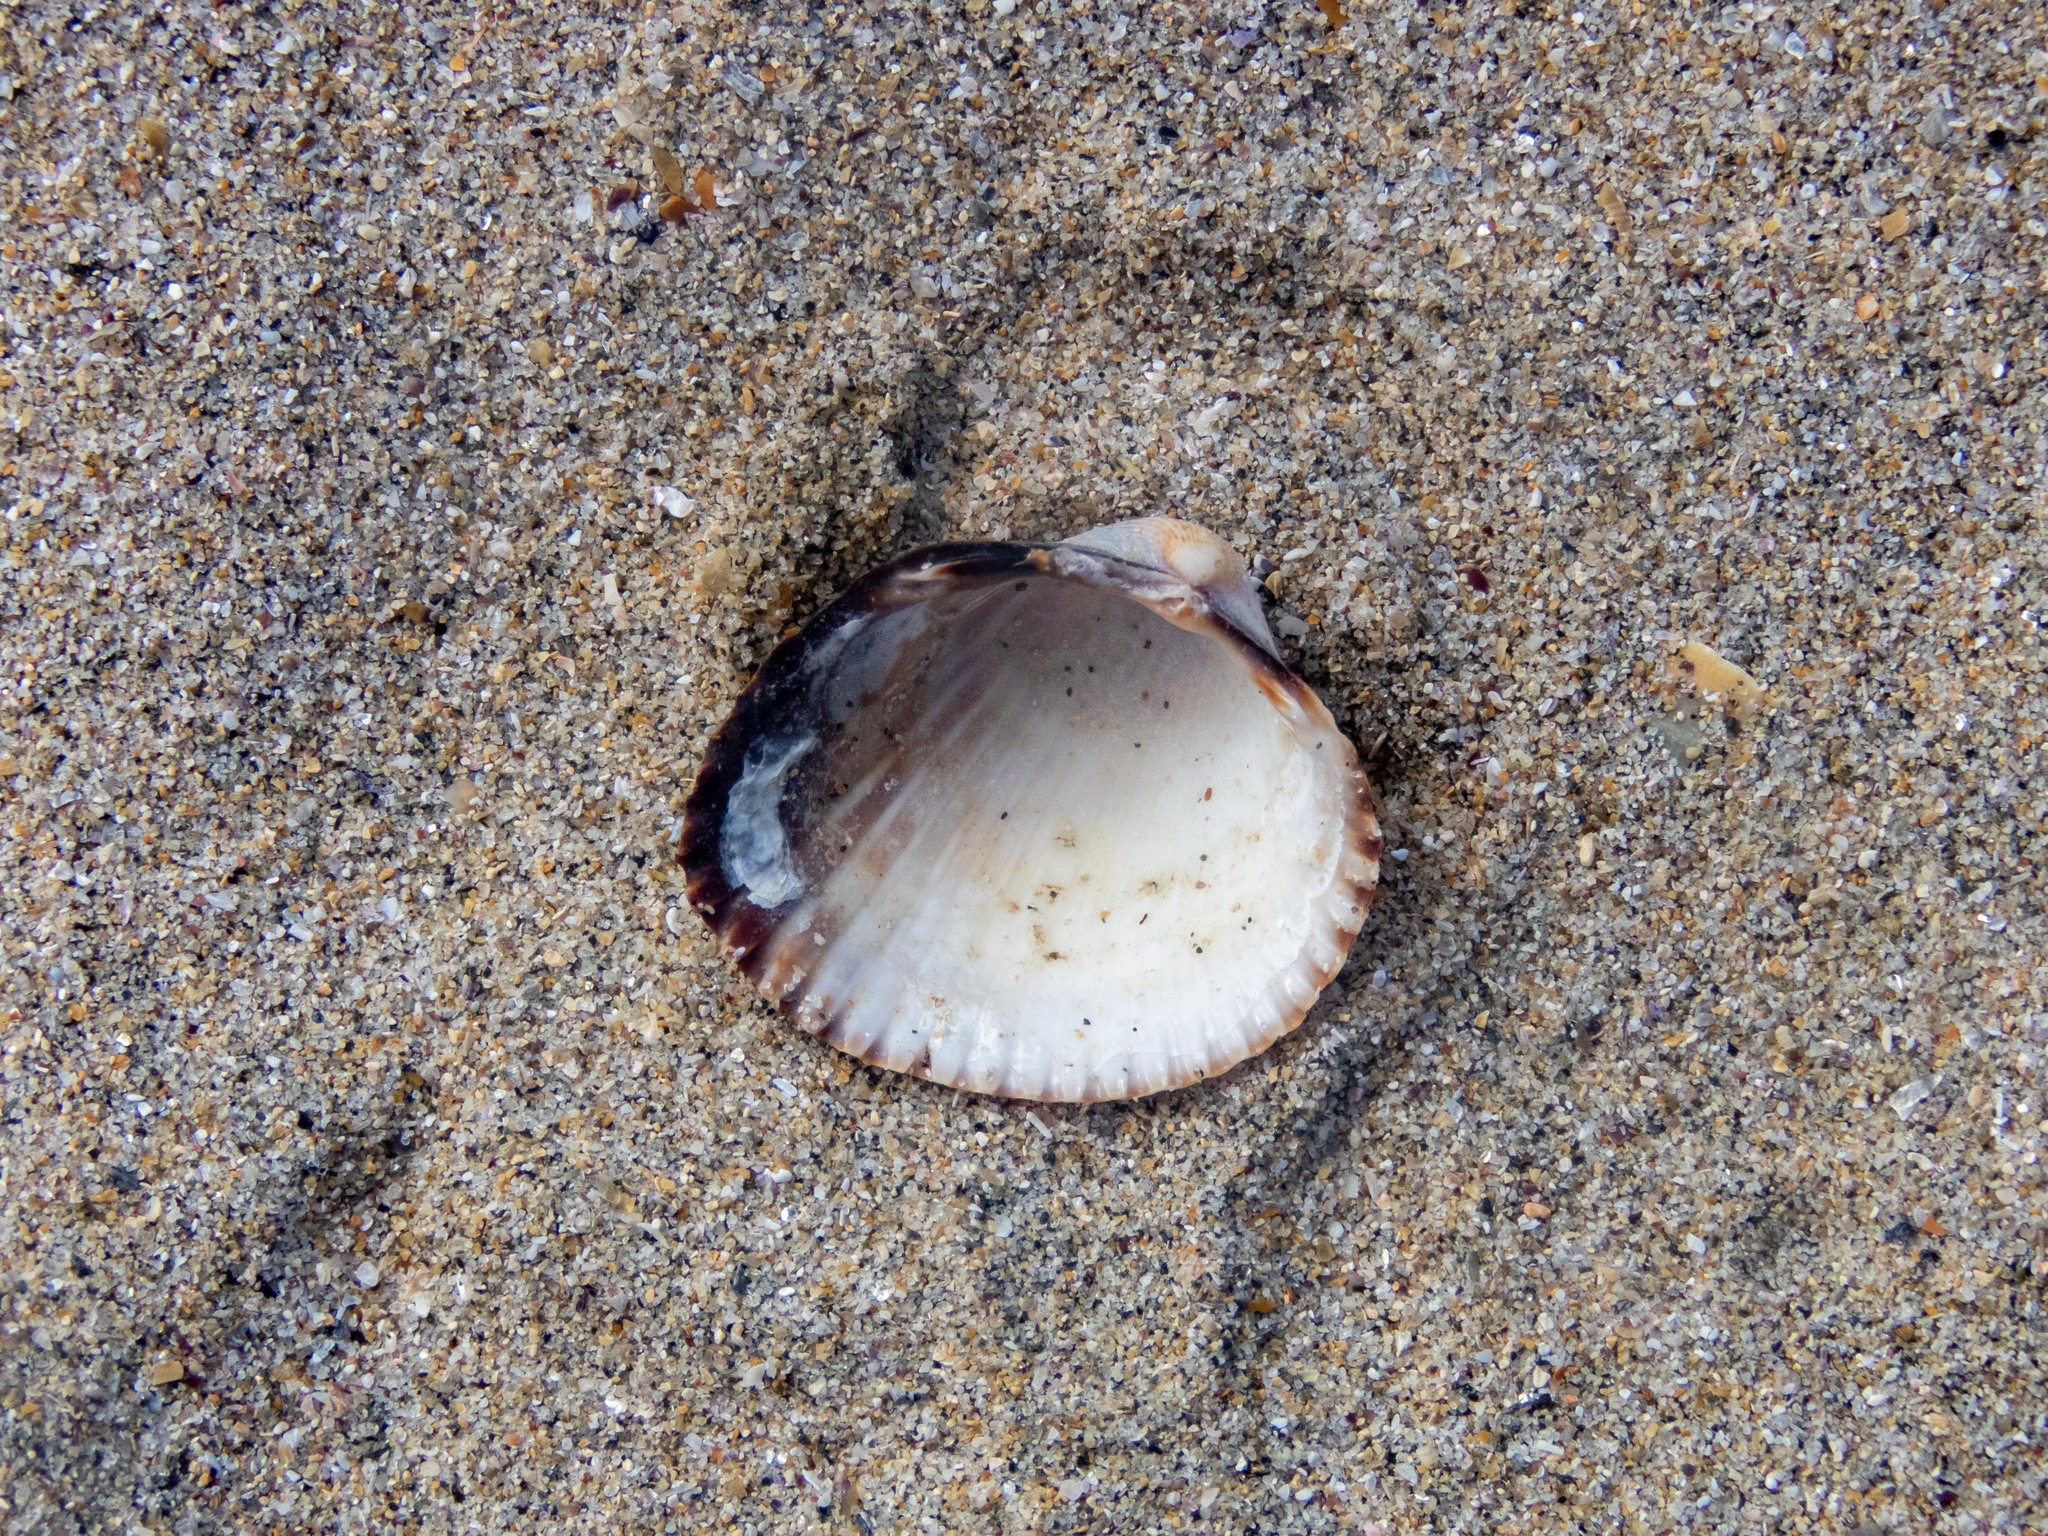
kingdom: Animalia
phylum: Mollusca
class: Bivalvia
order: Cardiida
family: Cardiidae
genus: Cerastoderma
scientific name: Cerastoderma edule
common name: Common cockle
